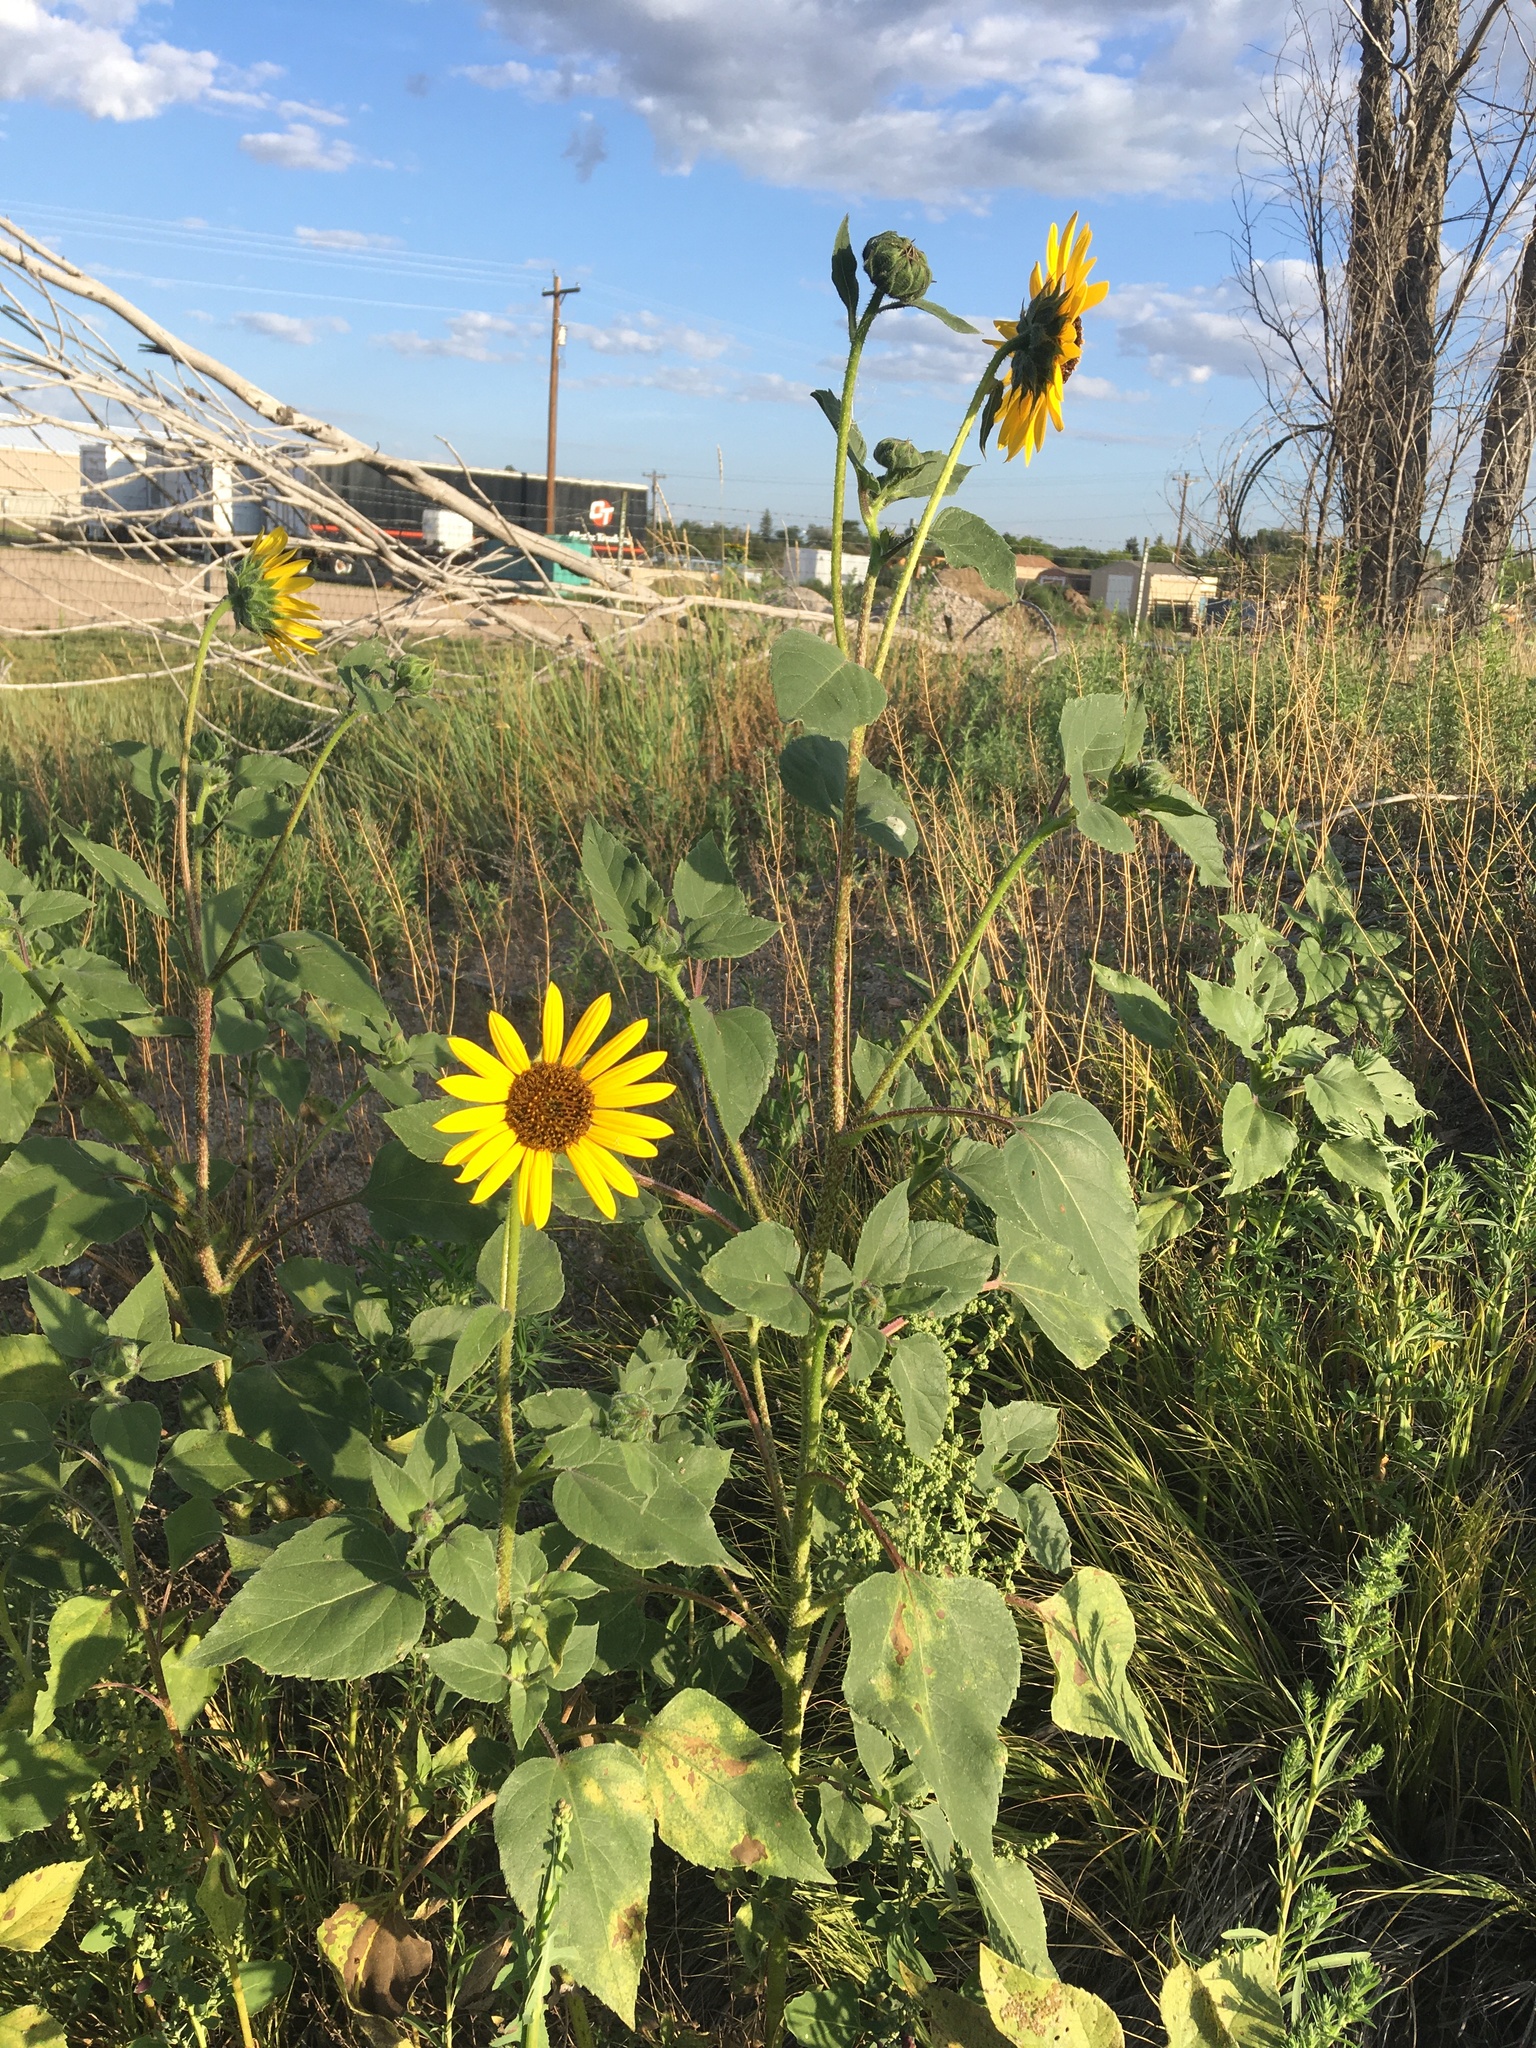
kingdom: Plantae
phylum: Tracheophyta
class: Magnoliopsida
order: Asterales
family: Asteraceae
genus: Helianthus
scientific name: Helianthus annuus
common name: Sunflower
